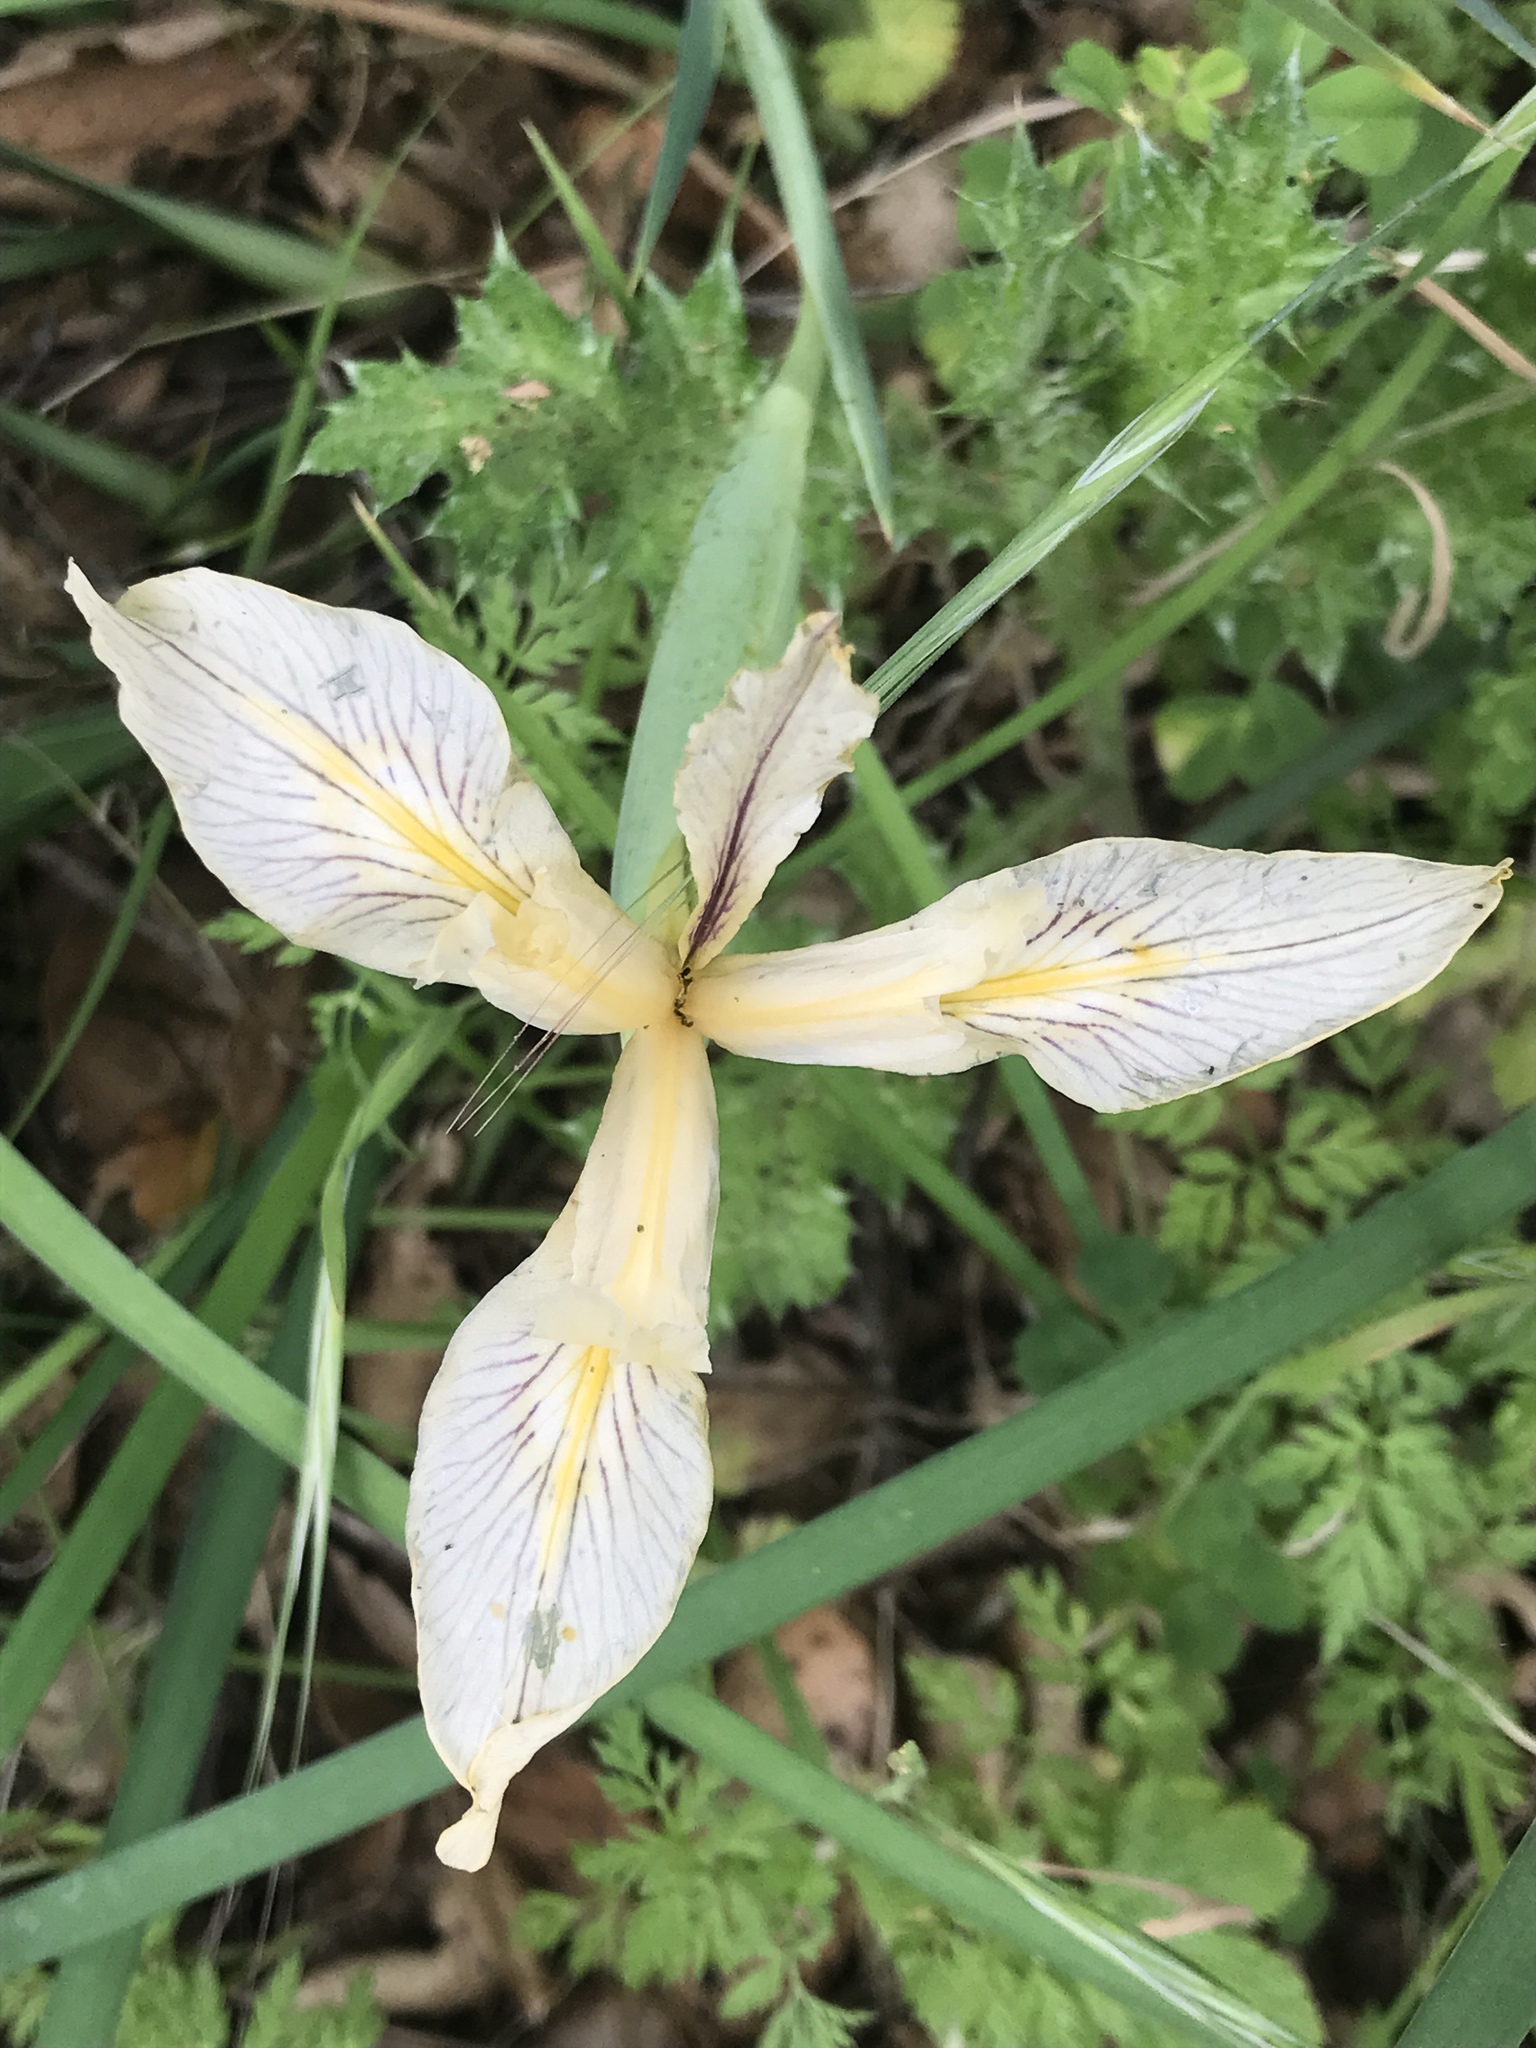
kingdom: Plantae
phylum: Tracheophyta
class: Liliopsida
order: Asparagales
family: Iridaceae
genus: Iris
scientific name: Iris fernaldii
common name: Fernald's iris
